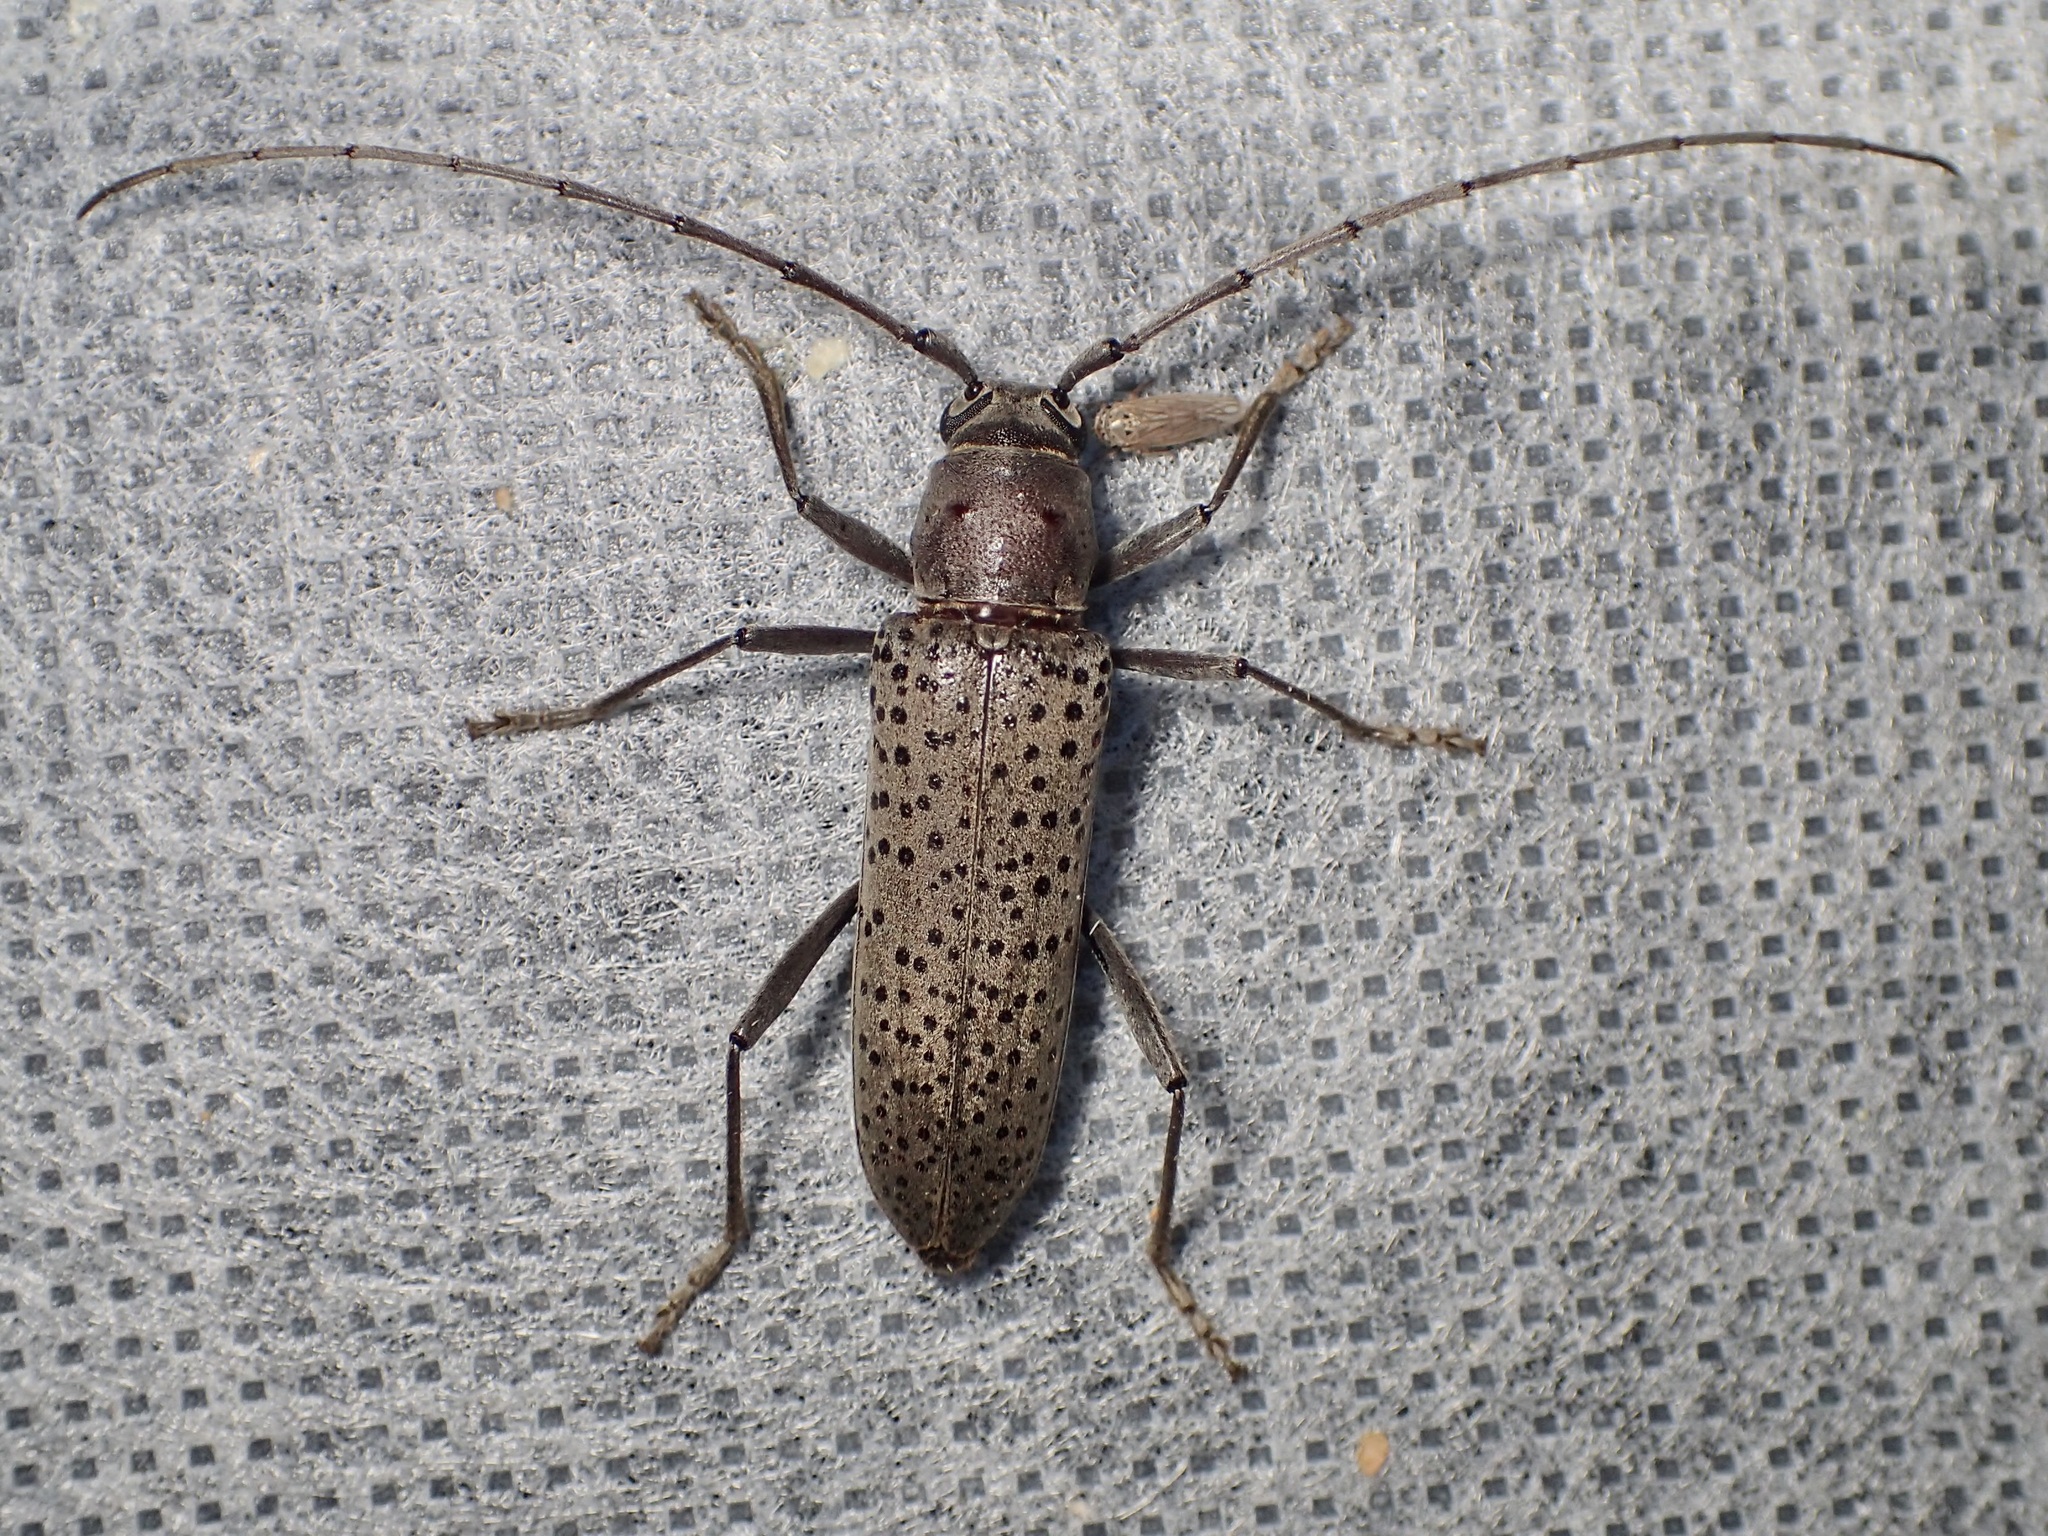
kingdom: Animalia
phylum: Arthropoda
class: Insecta
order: Coleoptera
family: Cerambycidae
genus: Osmidus
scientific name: Osmidus guttatus
